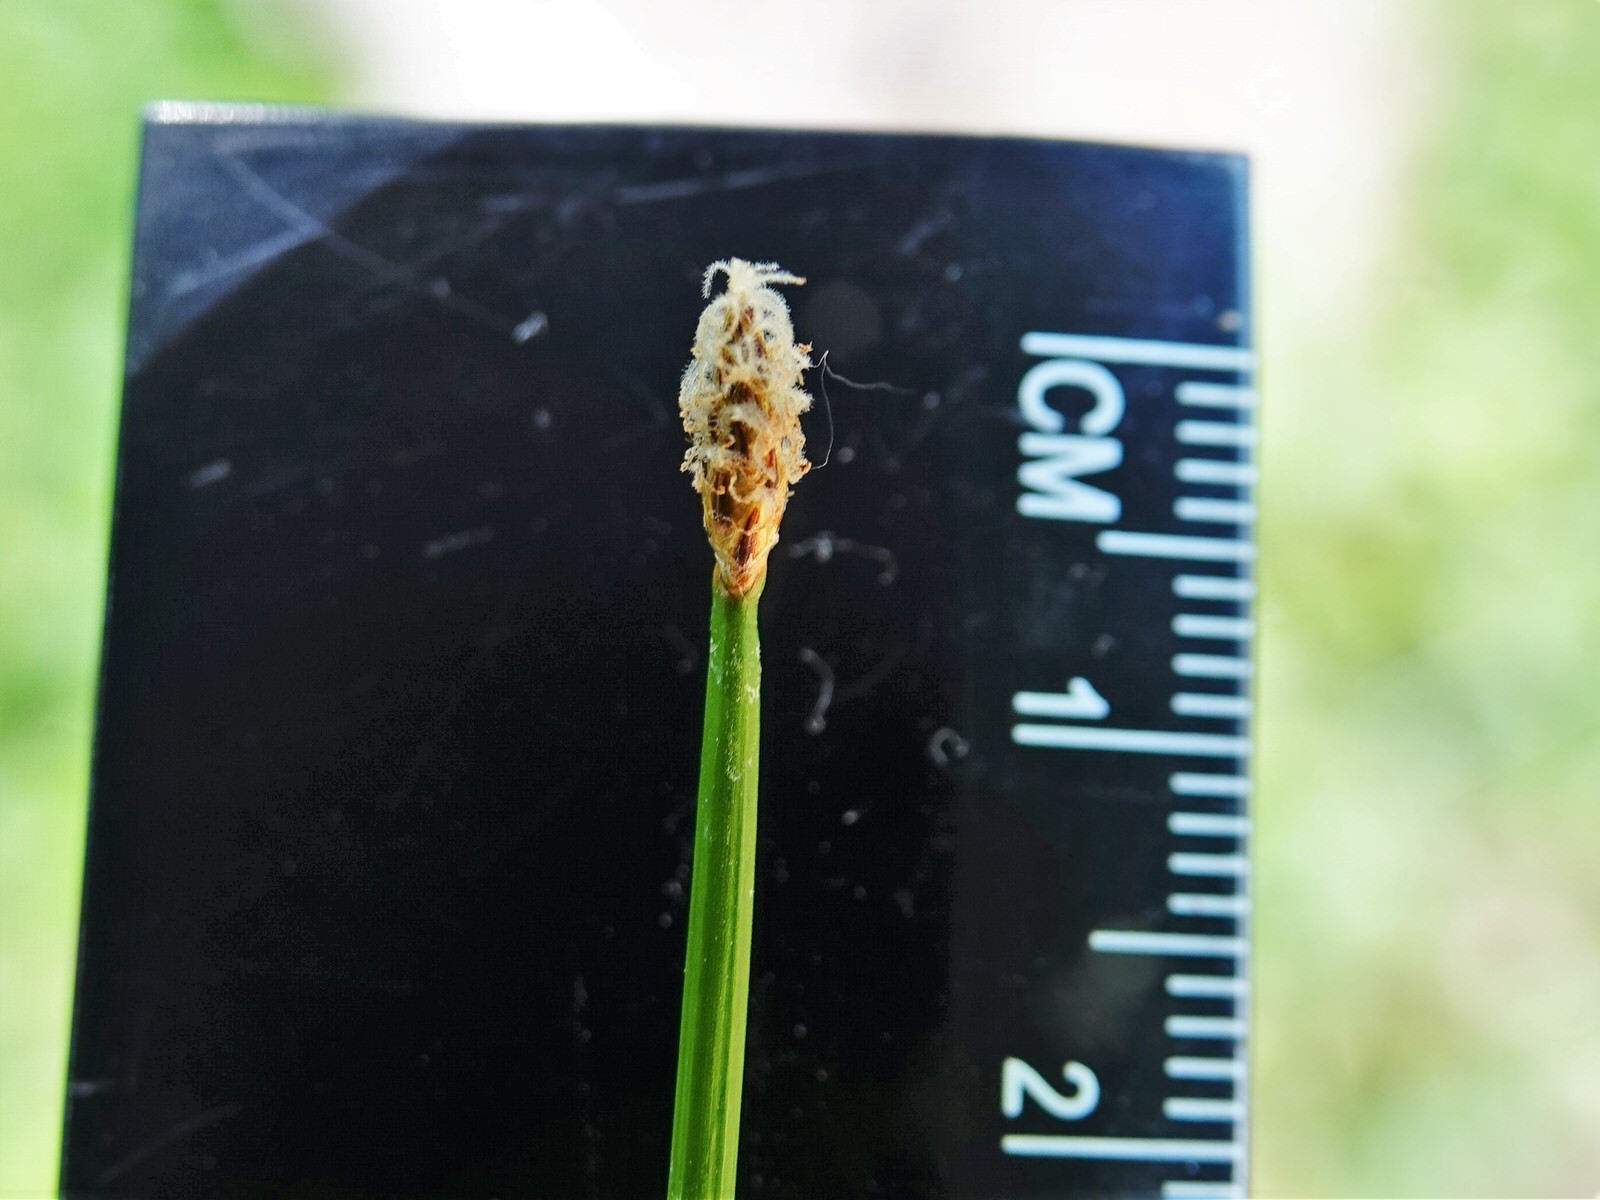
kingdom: Plantae
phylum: Tracheophyta
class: Liliopsida
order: Poales
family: Cyperaceae
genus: Eleocharis
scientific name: Eleocharis acuta
